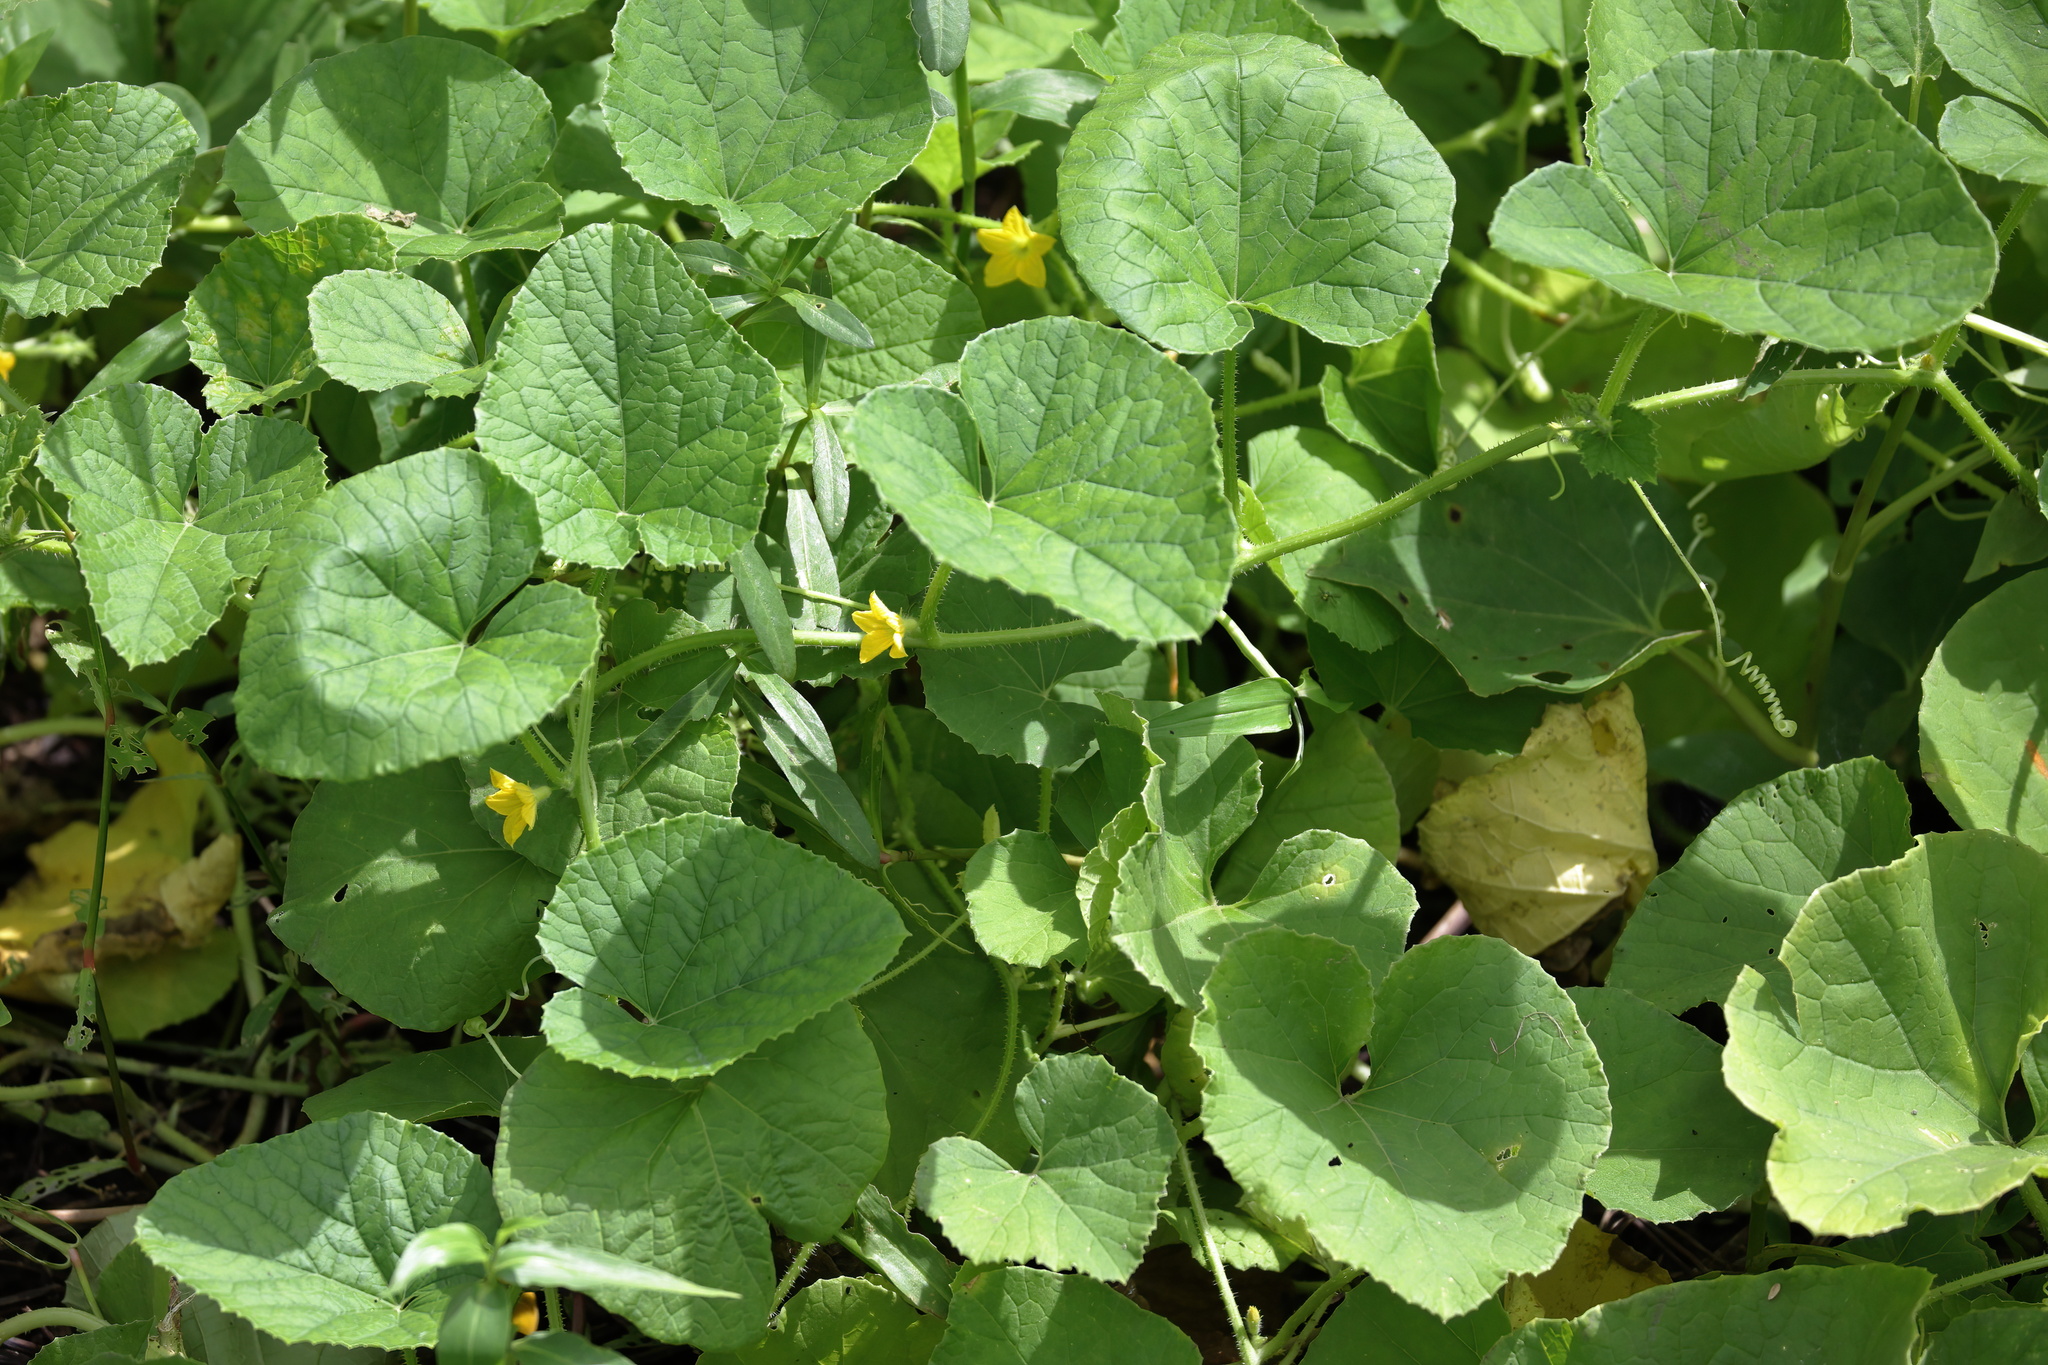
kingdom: Plantae
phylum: Tracheophyta
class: Magnoliopsida
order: Cucurbitales
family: Cucurbitaceae
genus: Cucumis
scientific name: Cucumis melo
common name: Melon
